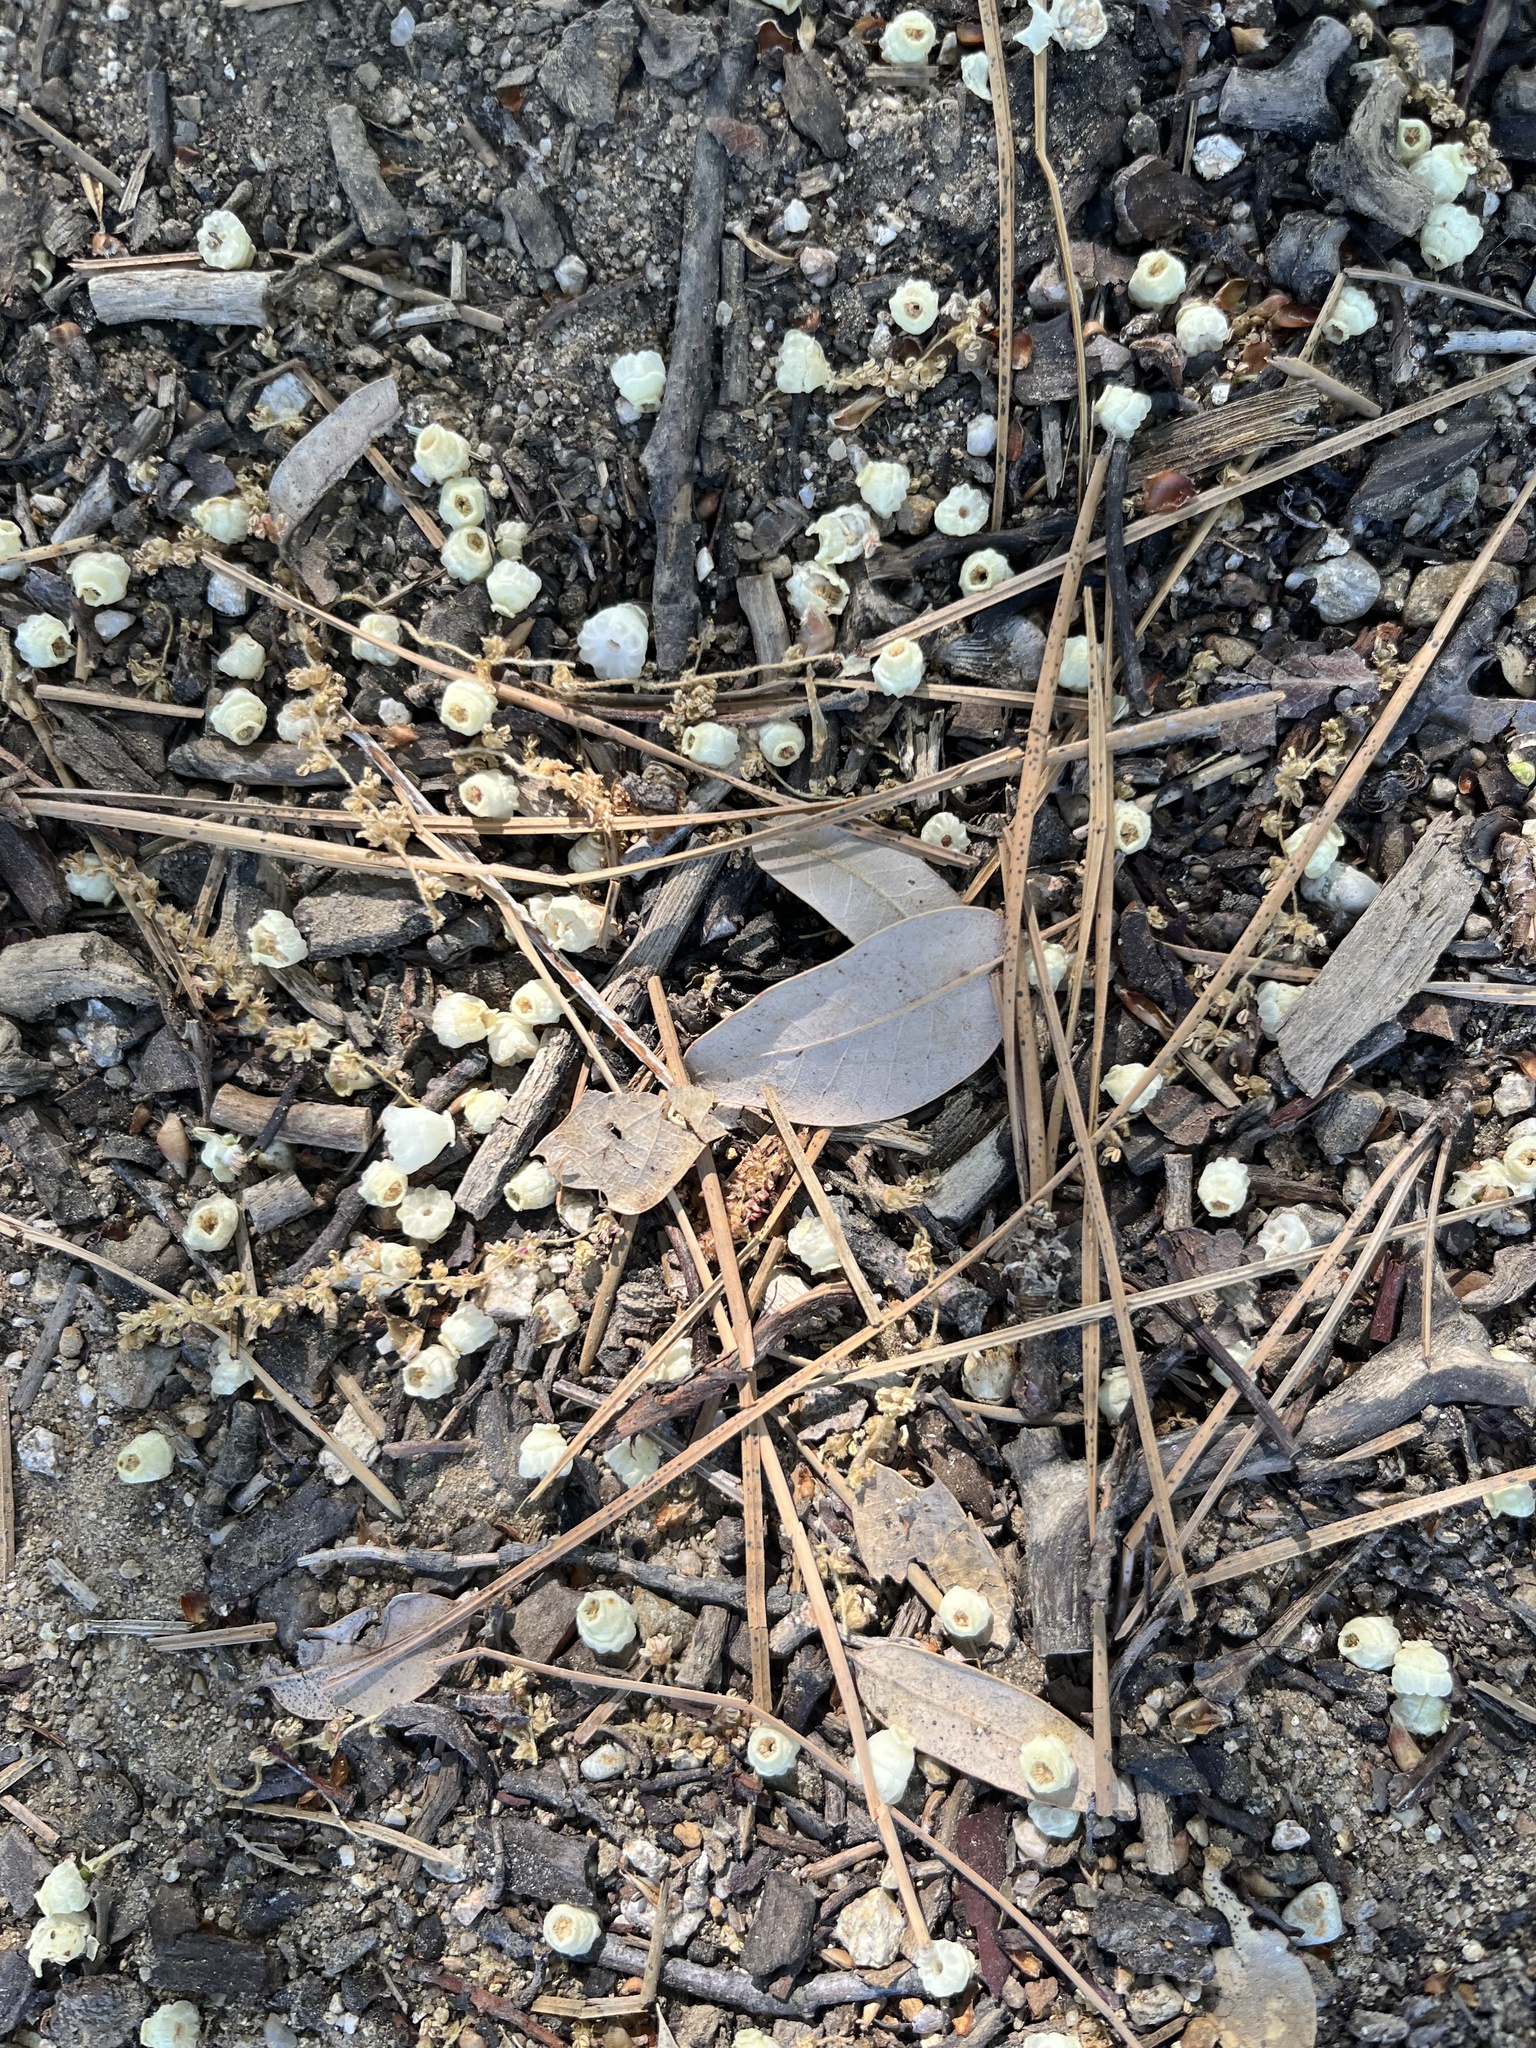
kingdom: Plantae
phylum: Tracheophyta
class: Magnoliopsida
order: Ericales
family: Ericaceae
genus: Arbutus
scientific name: Arbutus menziesii
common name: Pacific madrone
